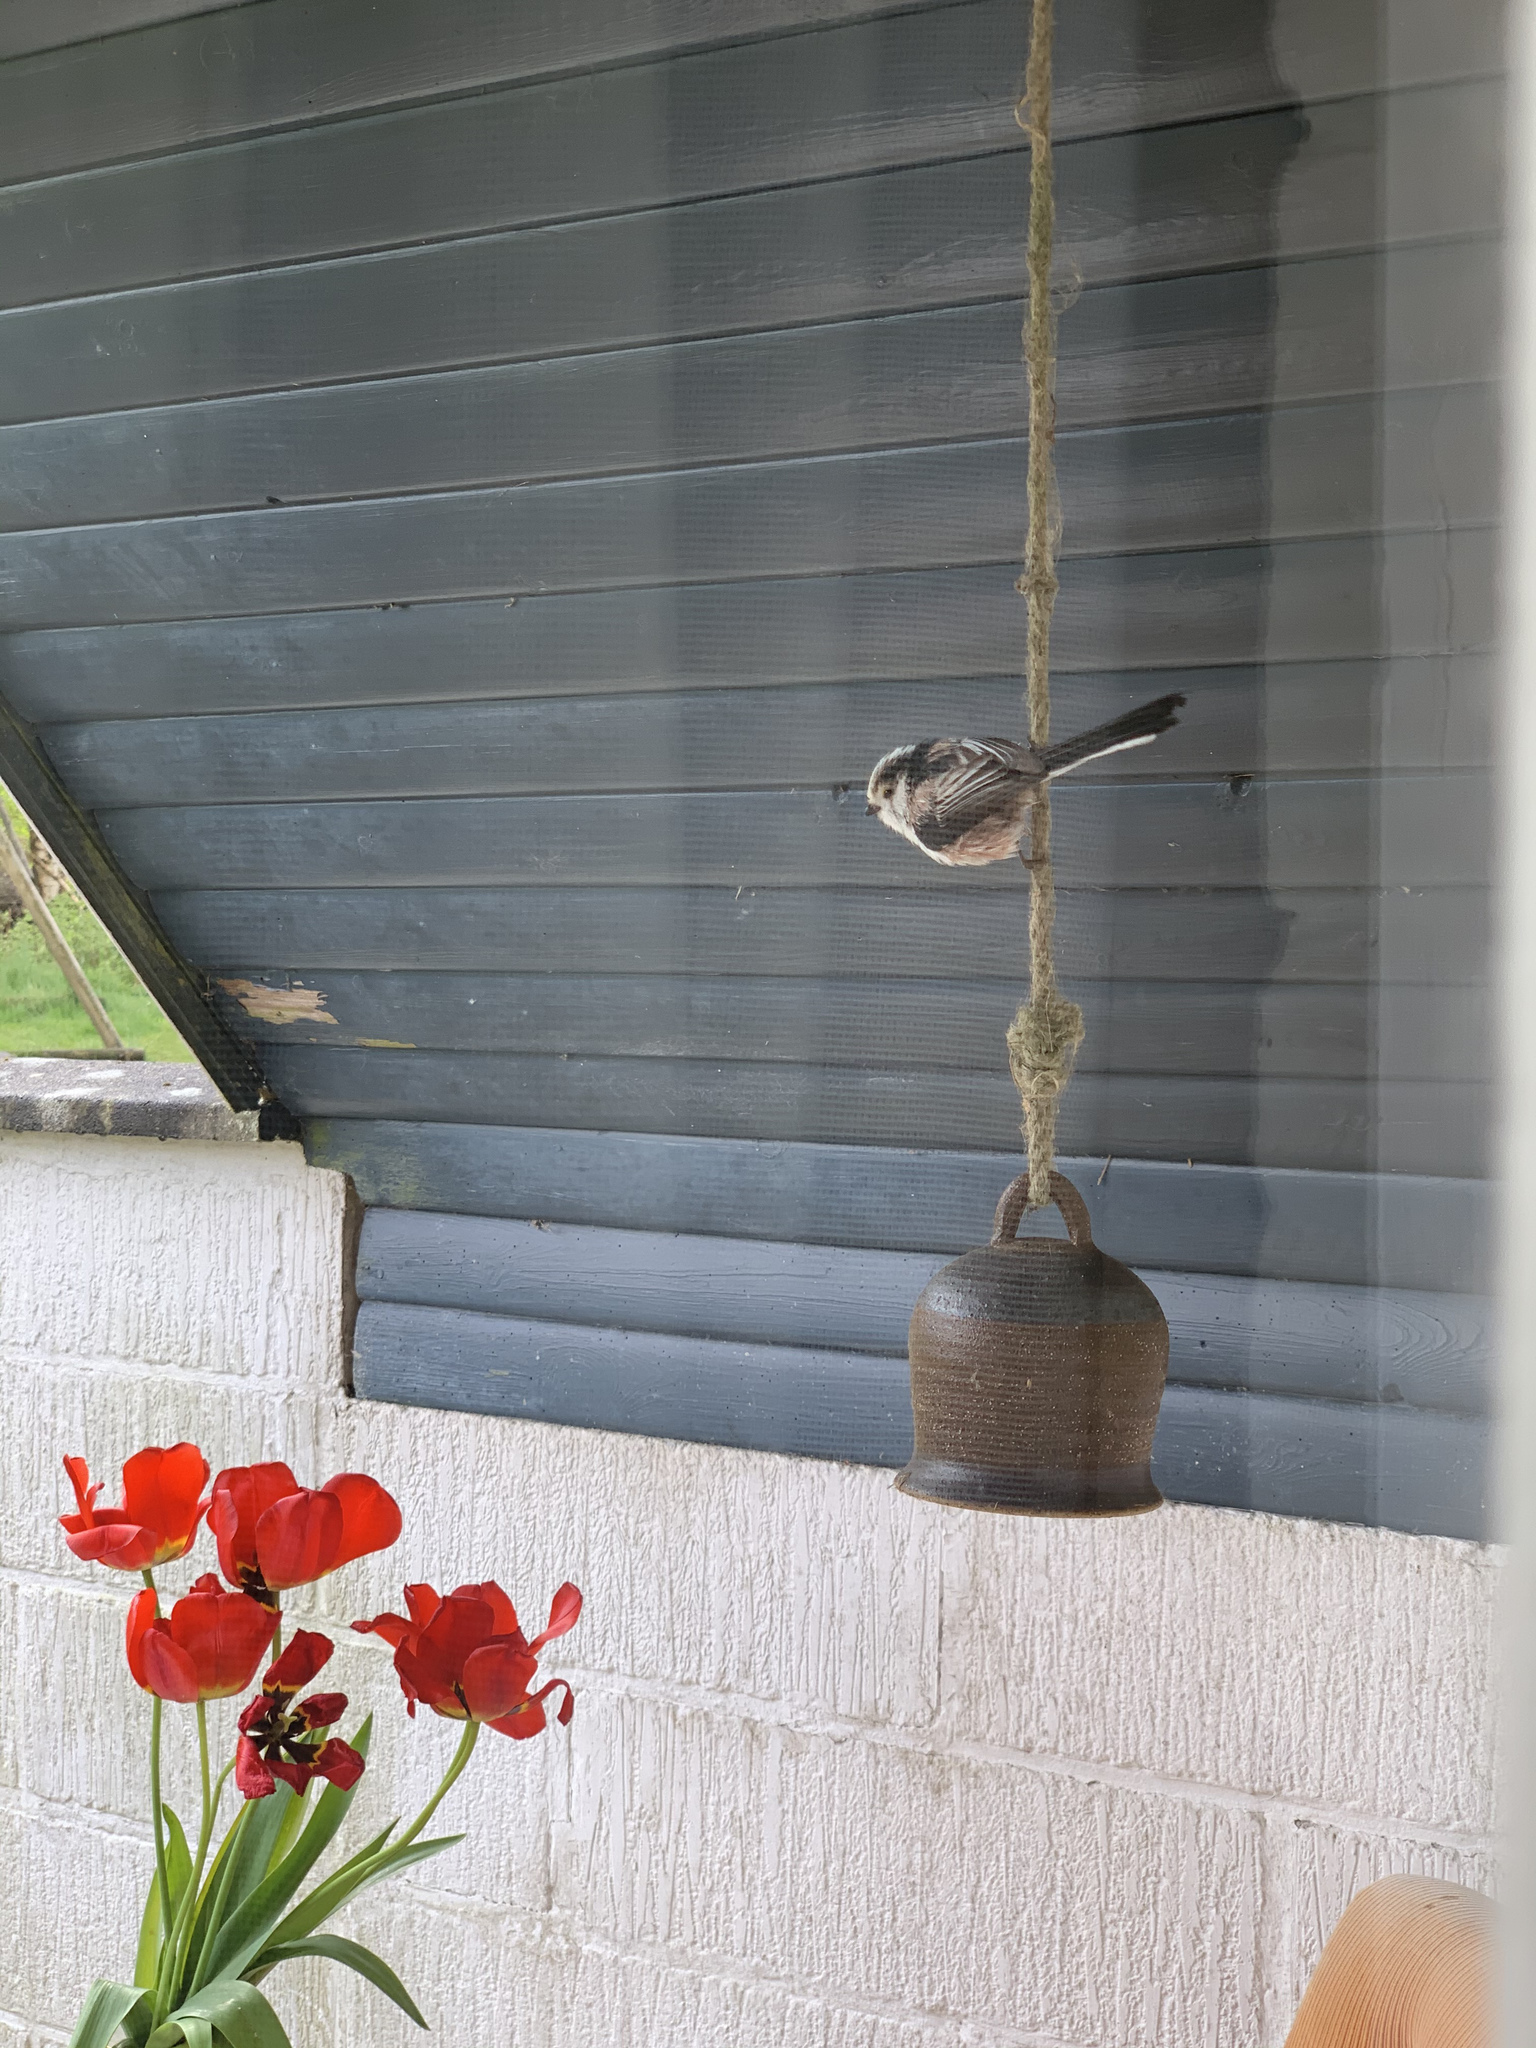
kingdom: Animalia
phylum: Chordata
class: Aves
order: Passeriformes
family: Aegithalidae
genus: Aegithalos
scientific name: Aegithalos caudatus
